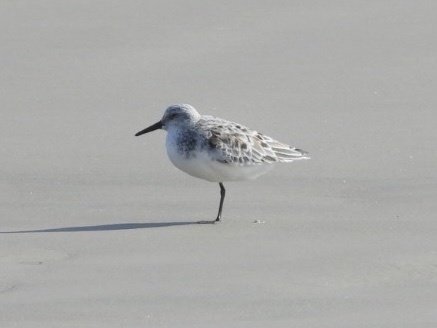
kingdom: Animalia
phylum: Chordata
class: Aves
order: Charadriiformes
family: Scolopacidae
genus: Calidris
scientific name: Calidris alba
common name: Sanderling
